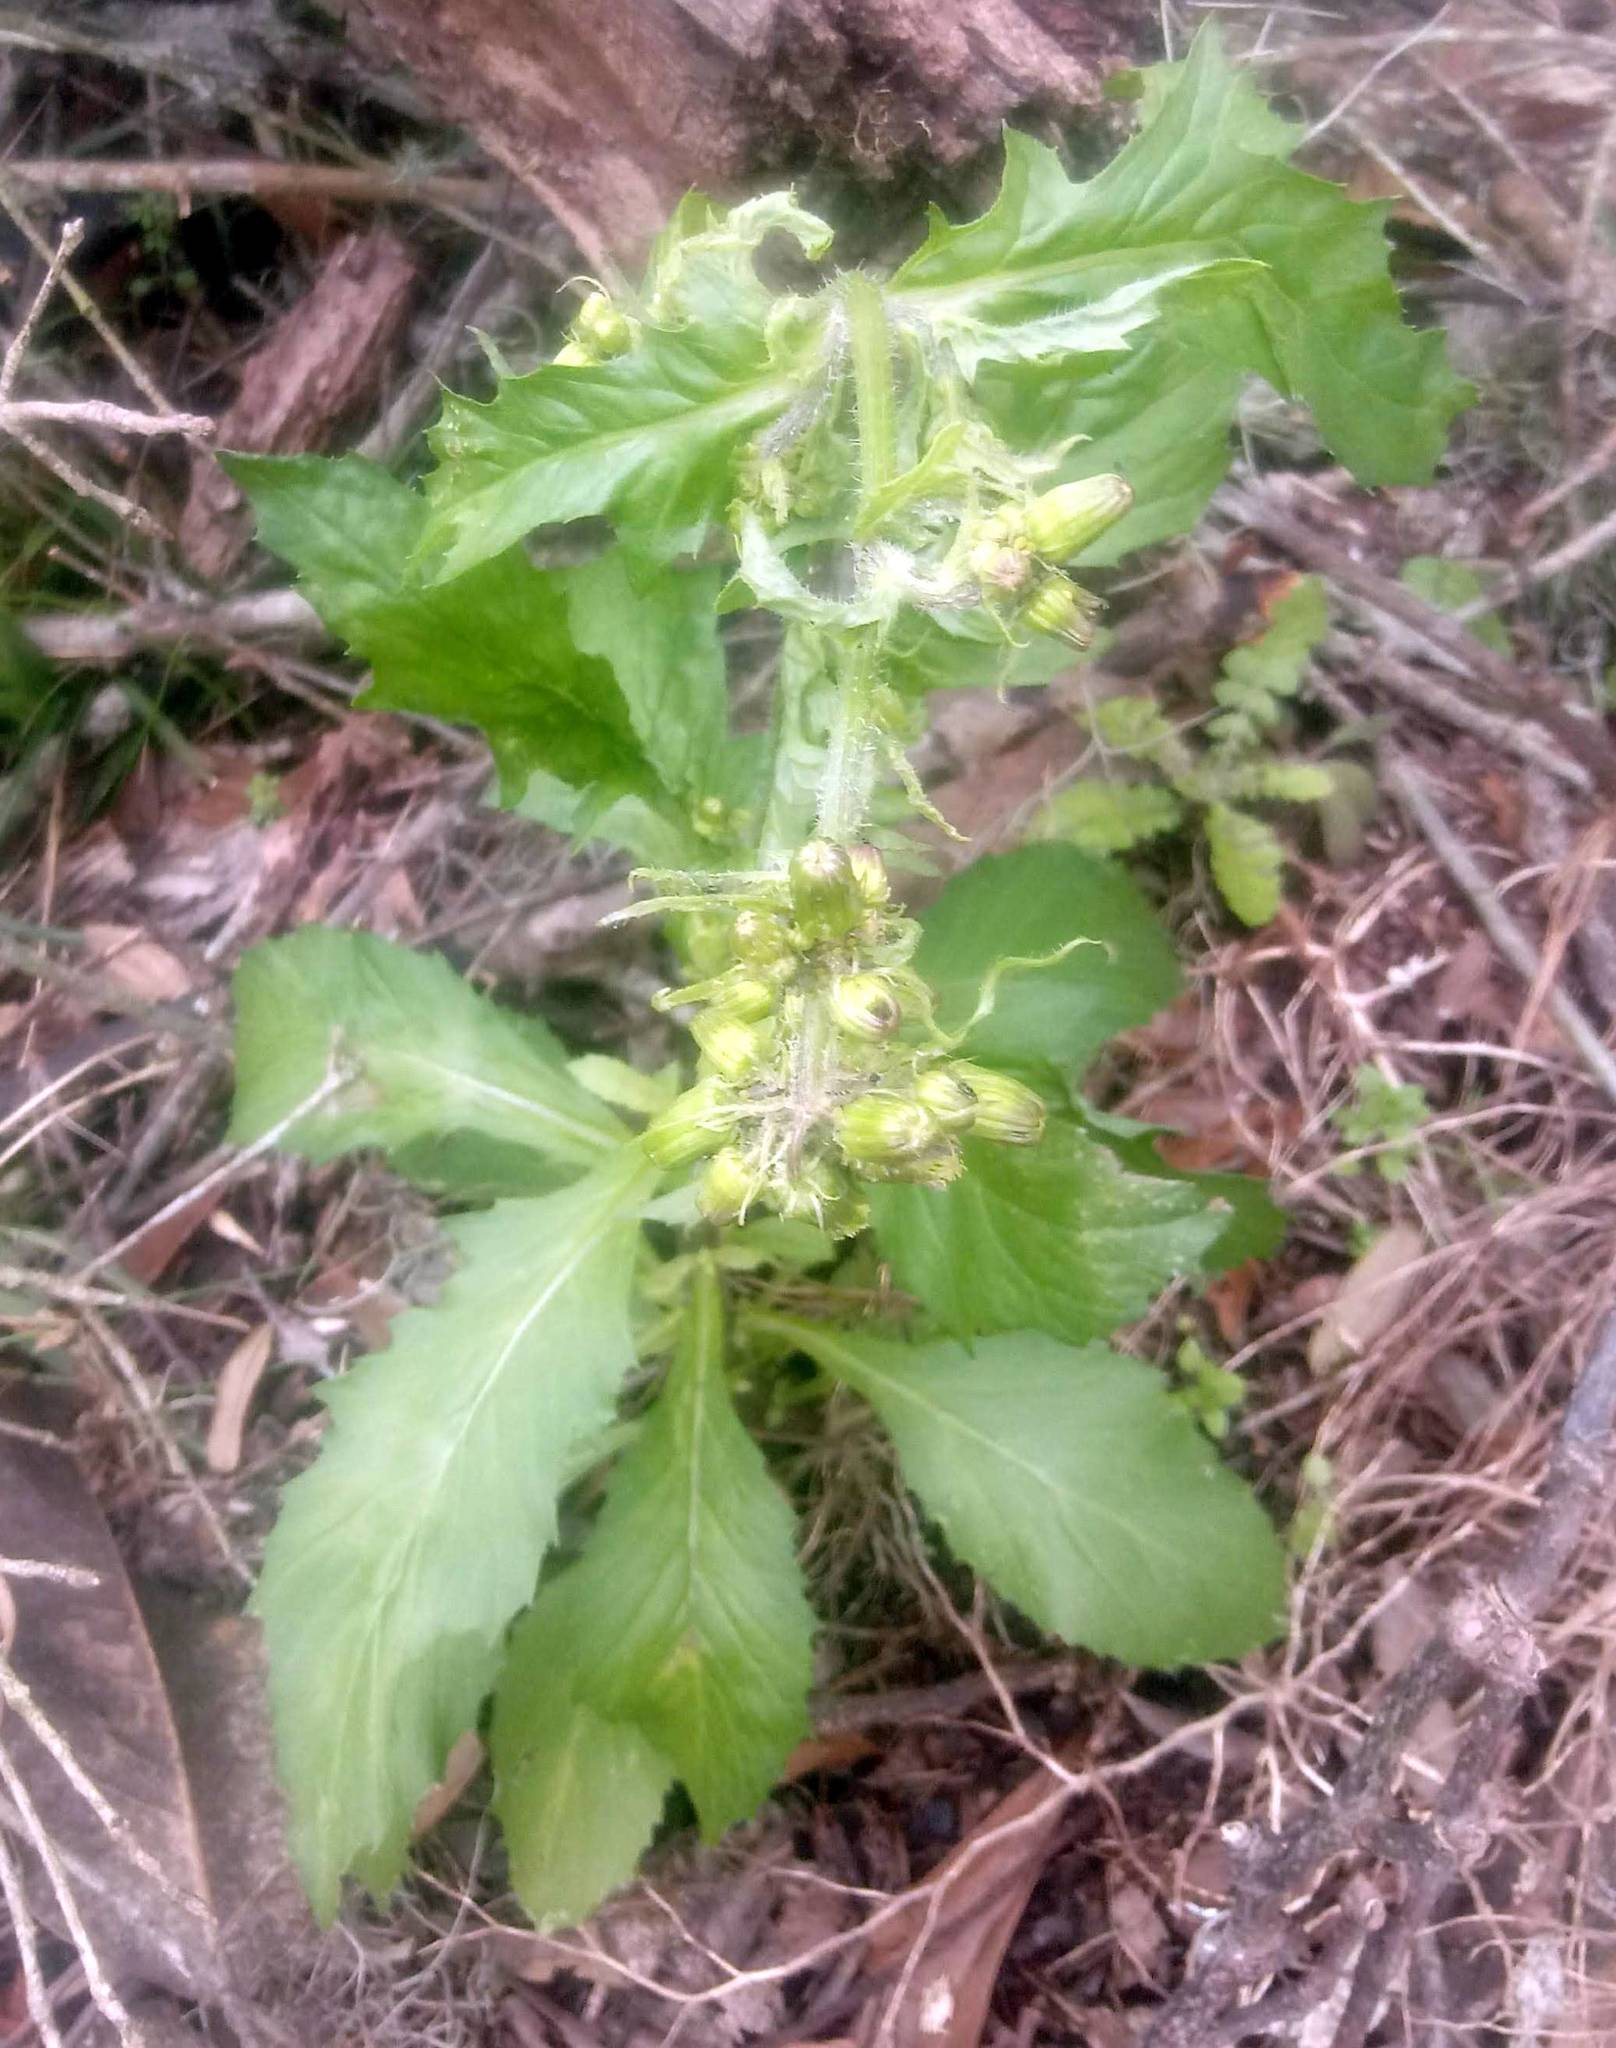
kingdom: Plantae
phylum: Tracheophyta
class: Magnoliopsida
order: Asterales
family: Asteraceae
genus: Erechtites
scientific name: Erechtites hieraciifolius
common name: American burnweed
